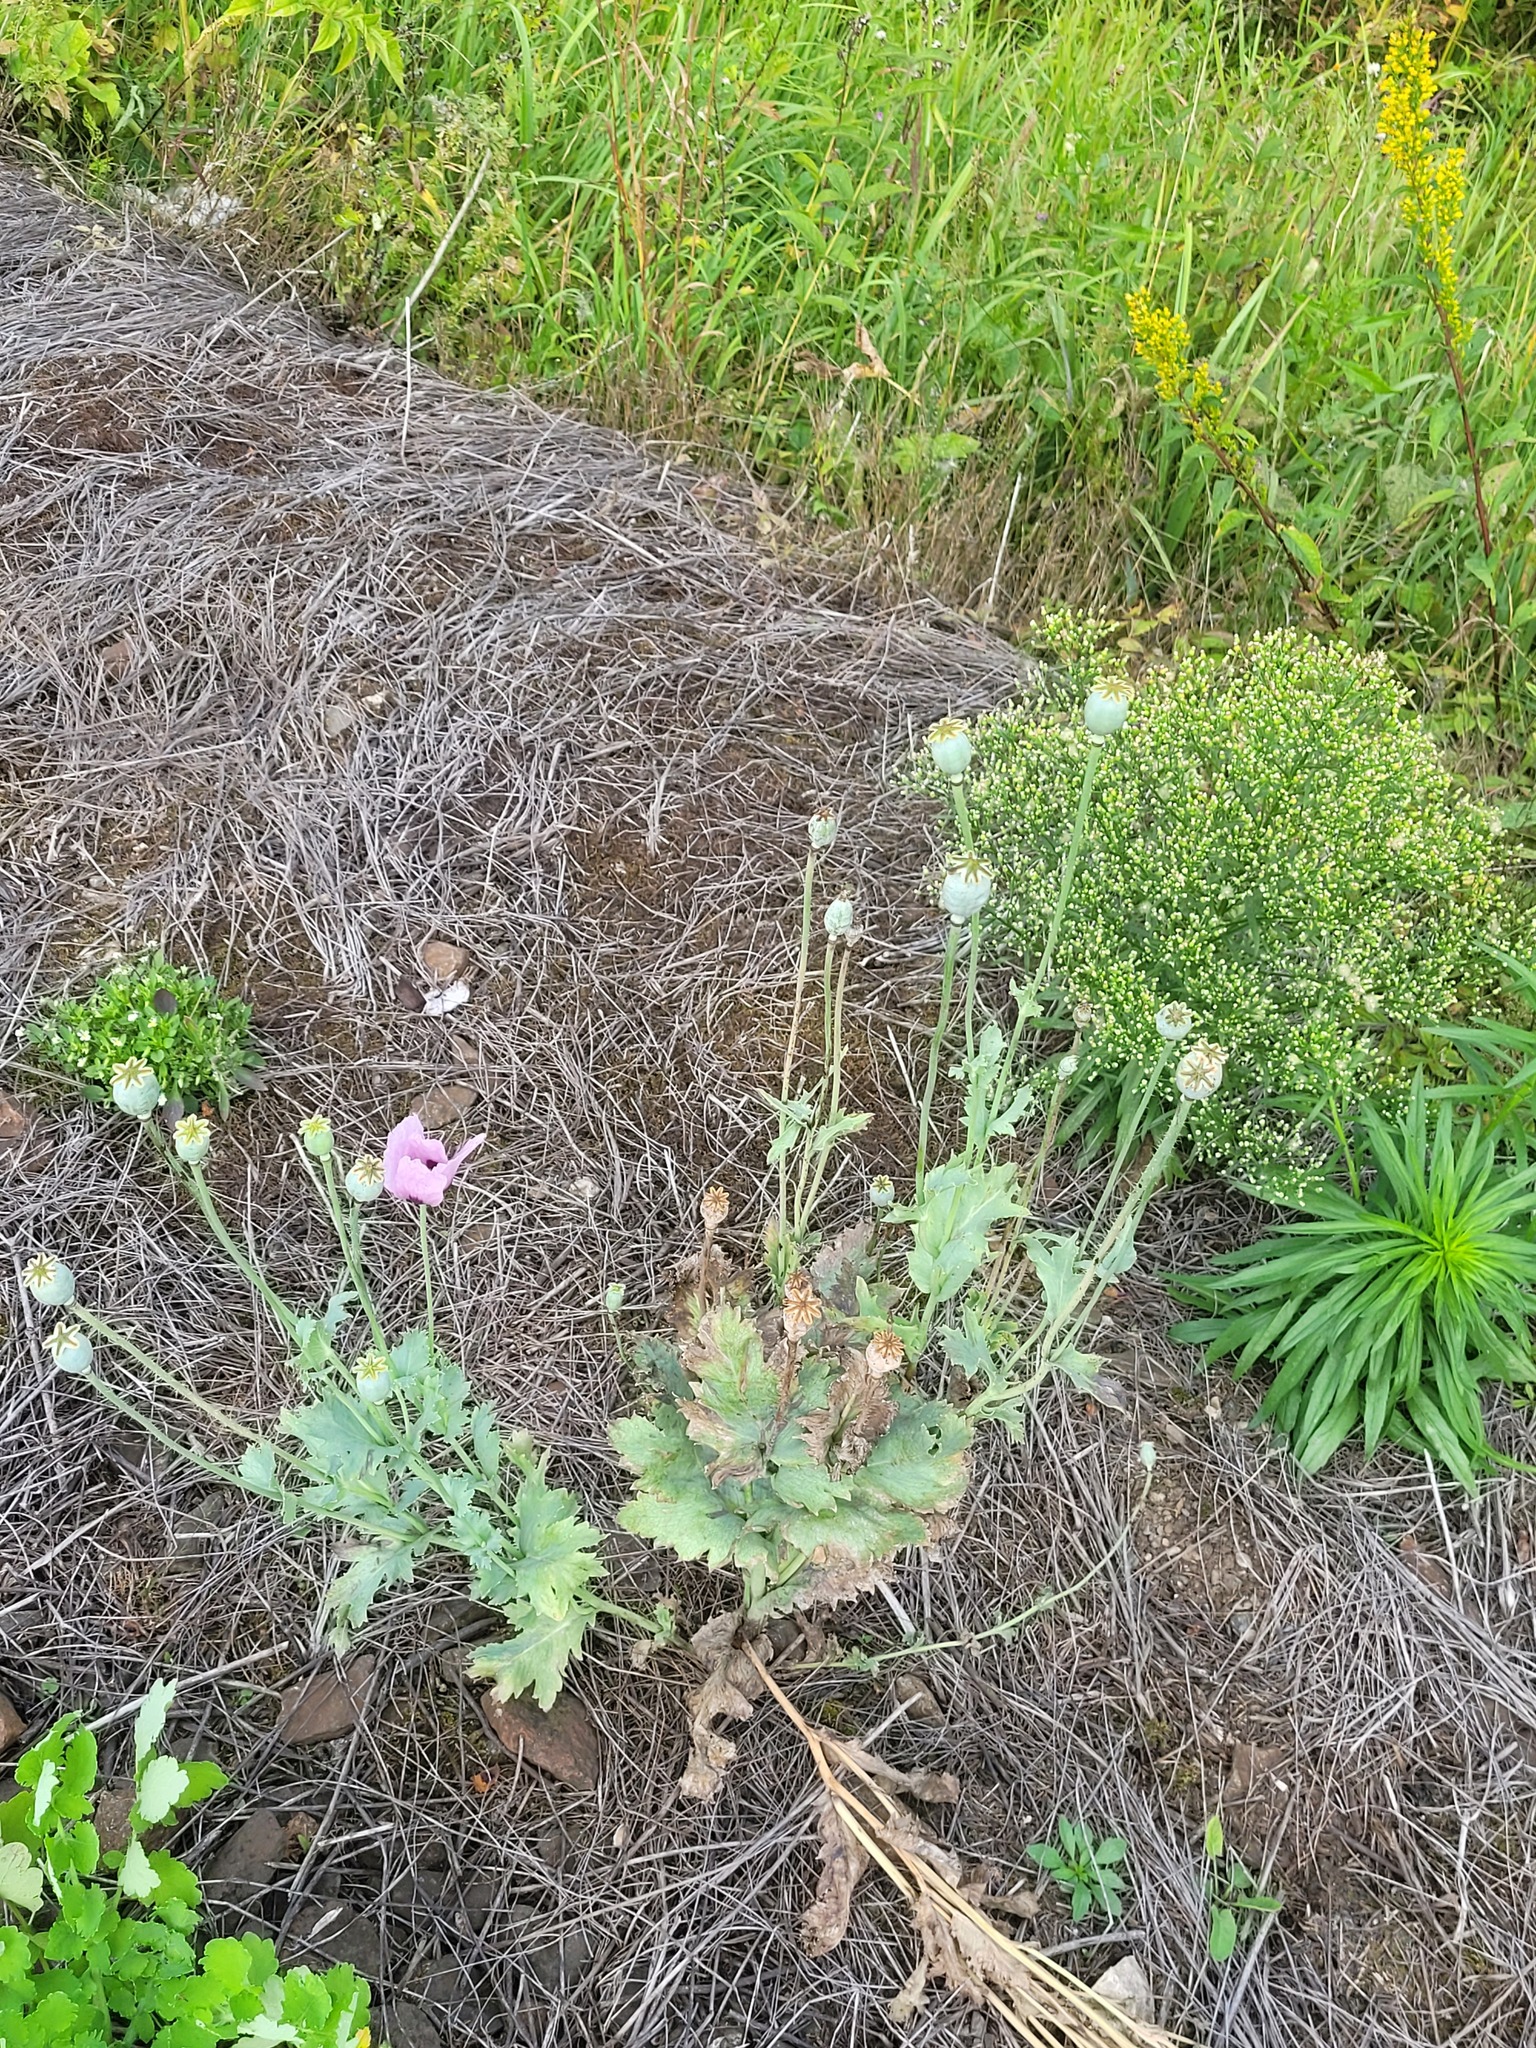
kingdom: Plantae
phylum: Tracheophyta
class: Magnoliopsida
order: Ranunculales
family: Papaveraceae
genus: Papaver
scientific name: Papaver somniferum
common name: Opium poppy
